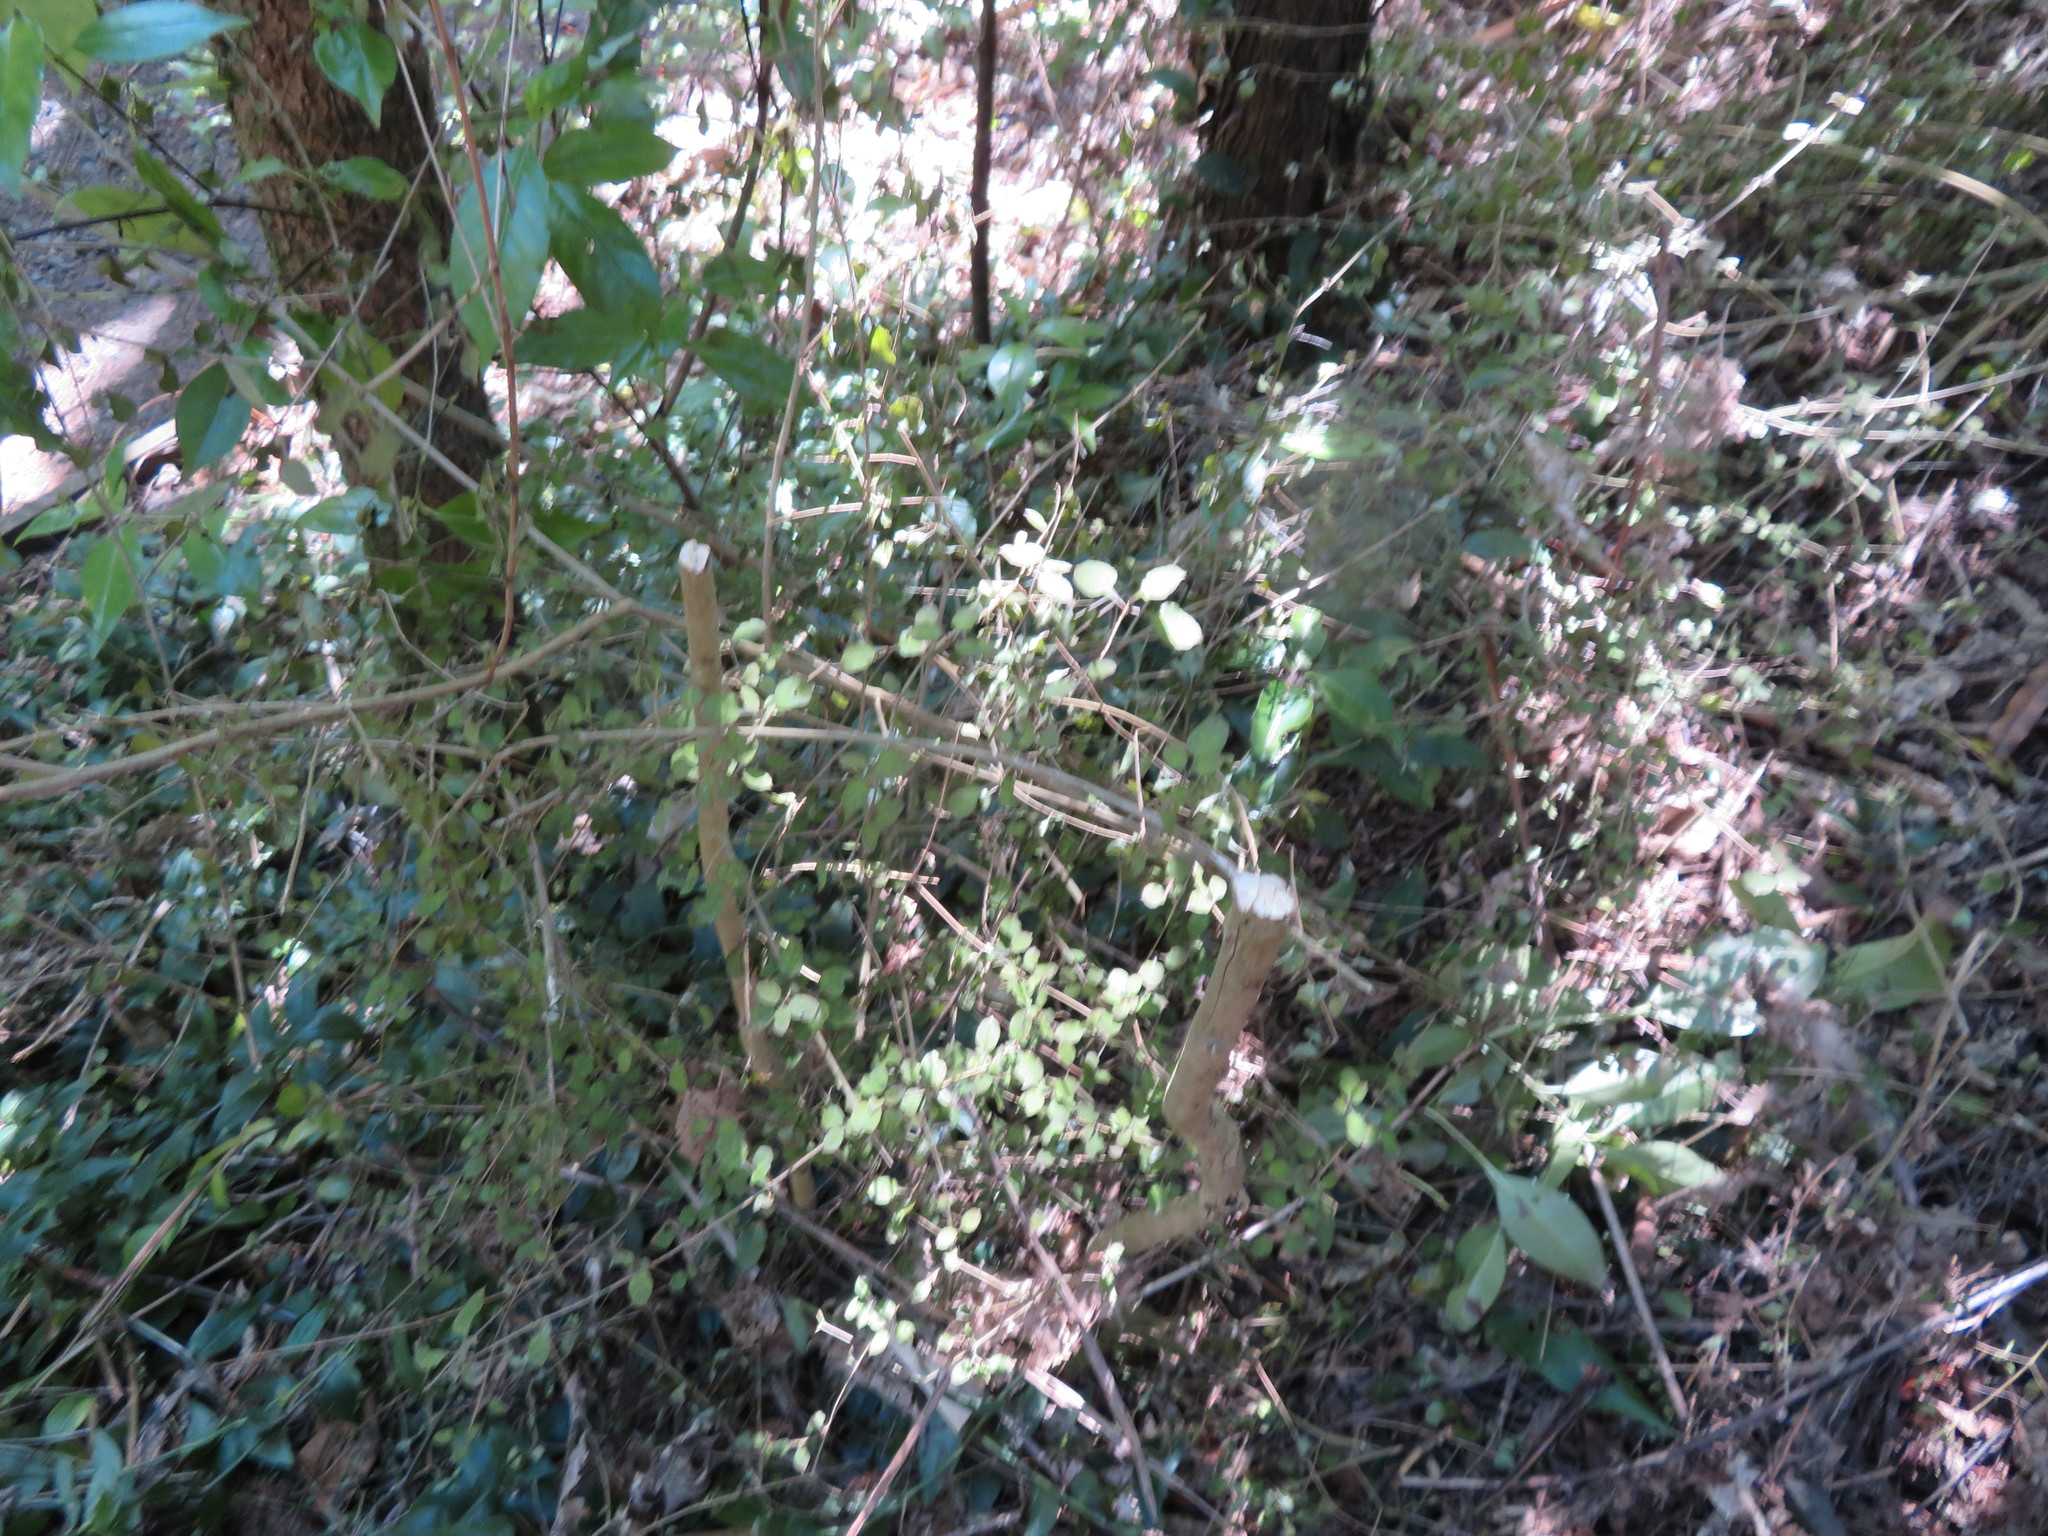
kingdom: Plantae
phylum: Tracheophyta
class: Magnoliopsida
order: Gentianales
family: Rubiaceae
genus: Coprosma
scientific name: Coprosma areolata
